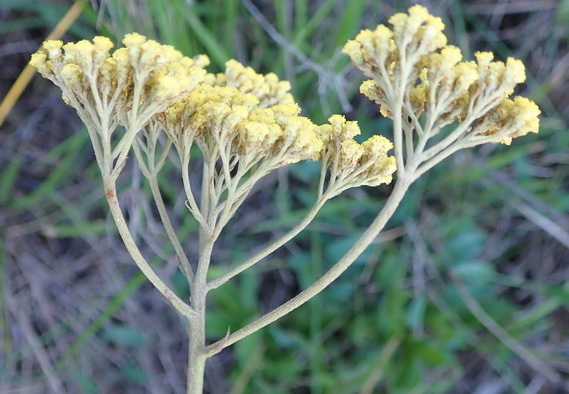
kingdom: Plantae
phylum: Tracheophyta
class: Magnoliopsida
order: Asterales
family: Asteraceae
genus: Helichrysum
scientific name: Helichrysum nudifolium
